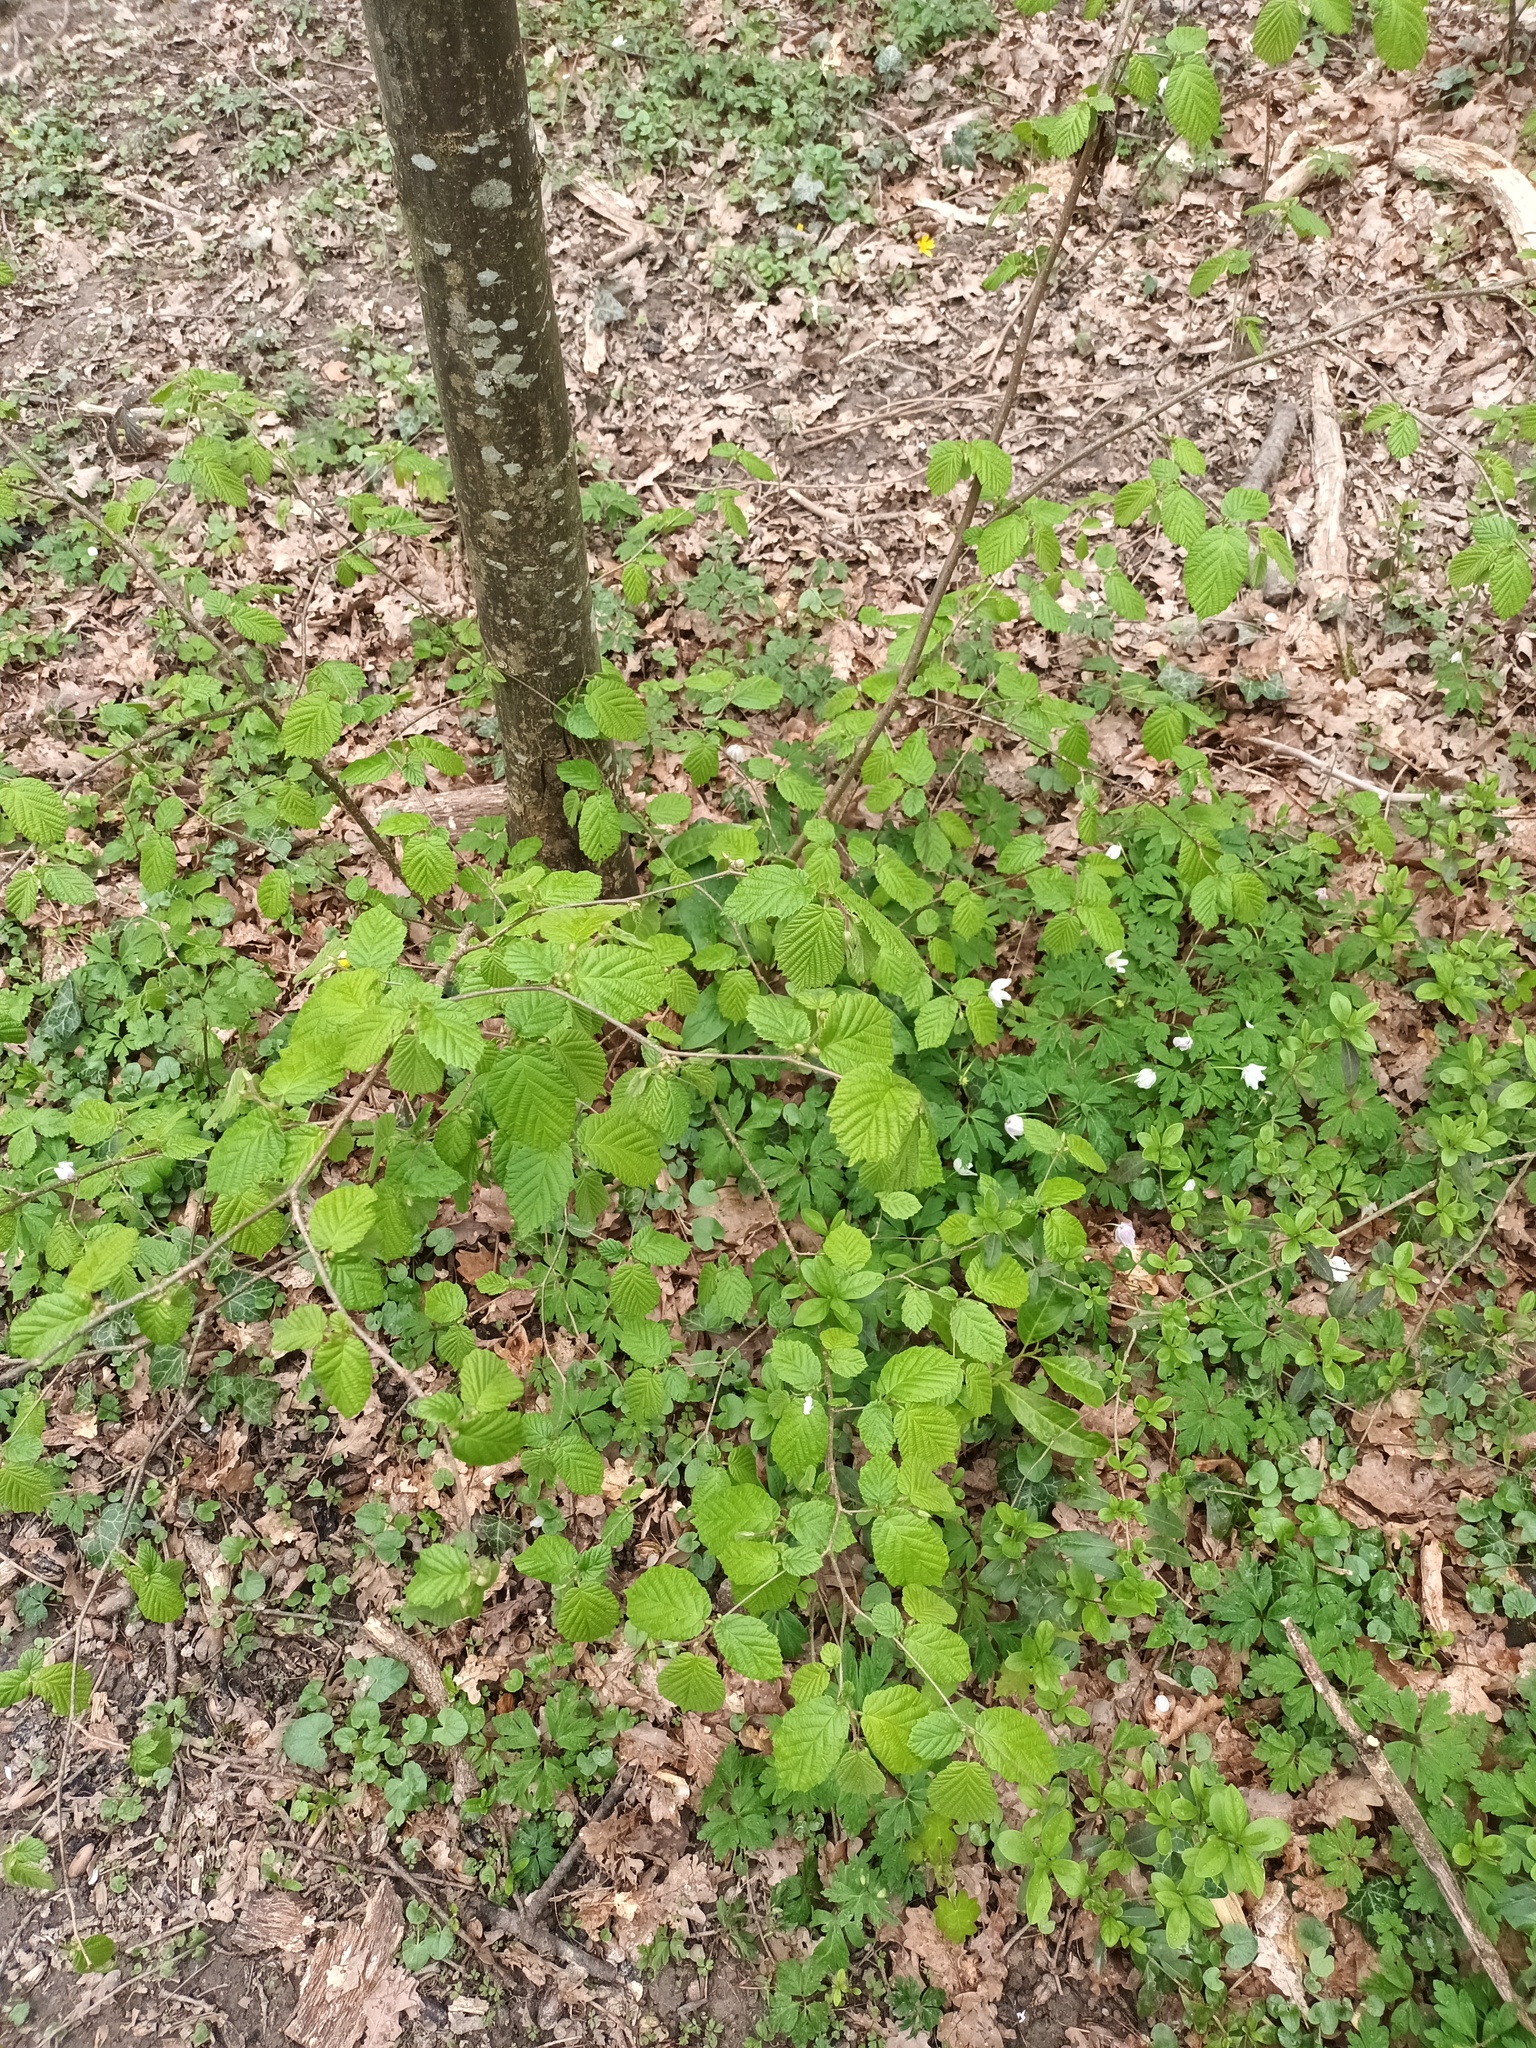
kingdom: Plantae
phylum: Tracheophyta
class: Magnoliopsida
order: Sapindales
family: Sapindaceae
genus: Acer
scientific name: Acer platanoides
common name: Norway maple
